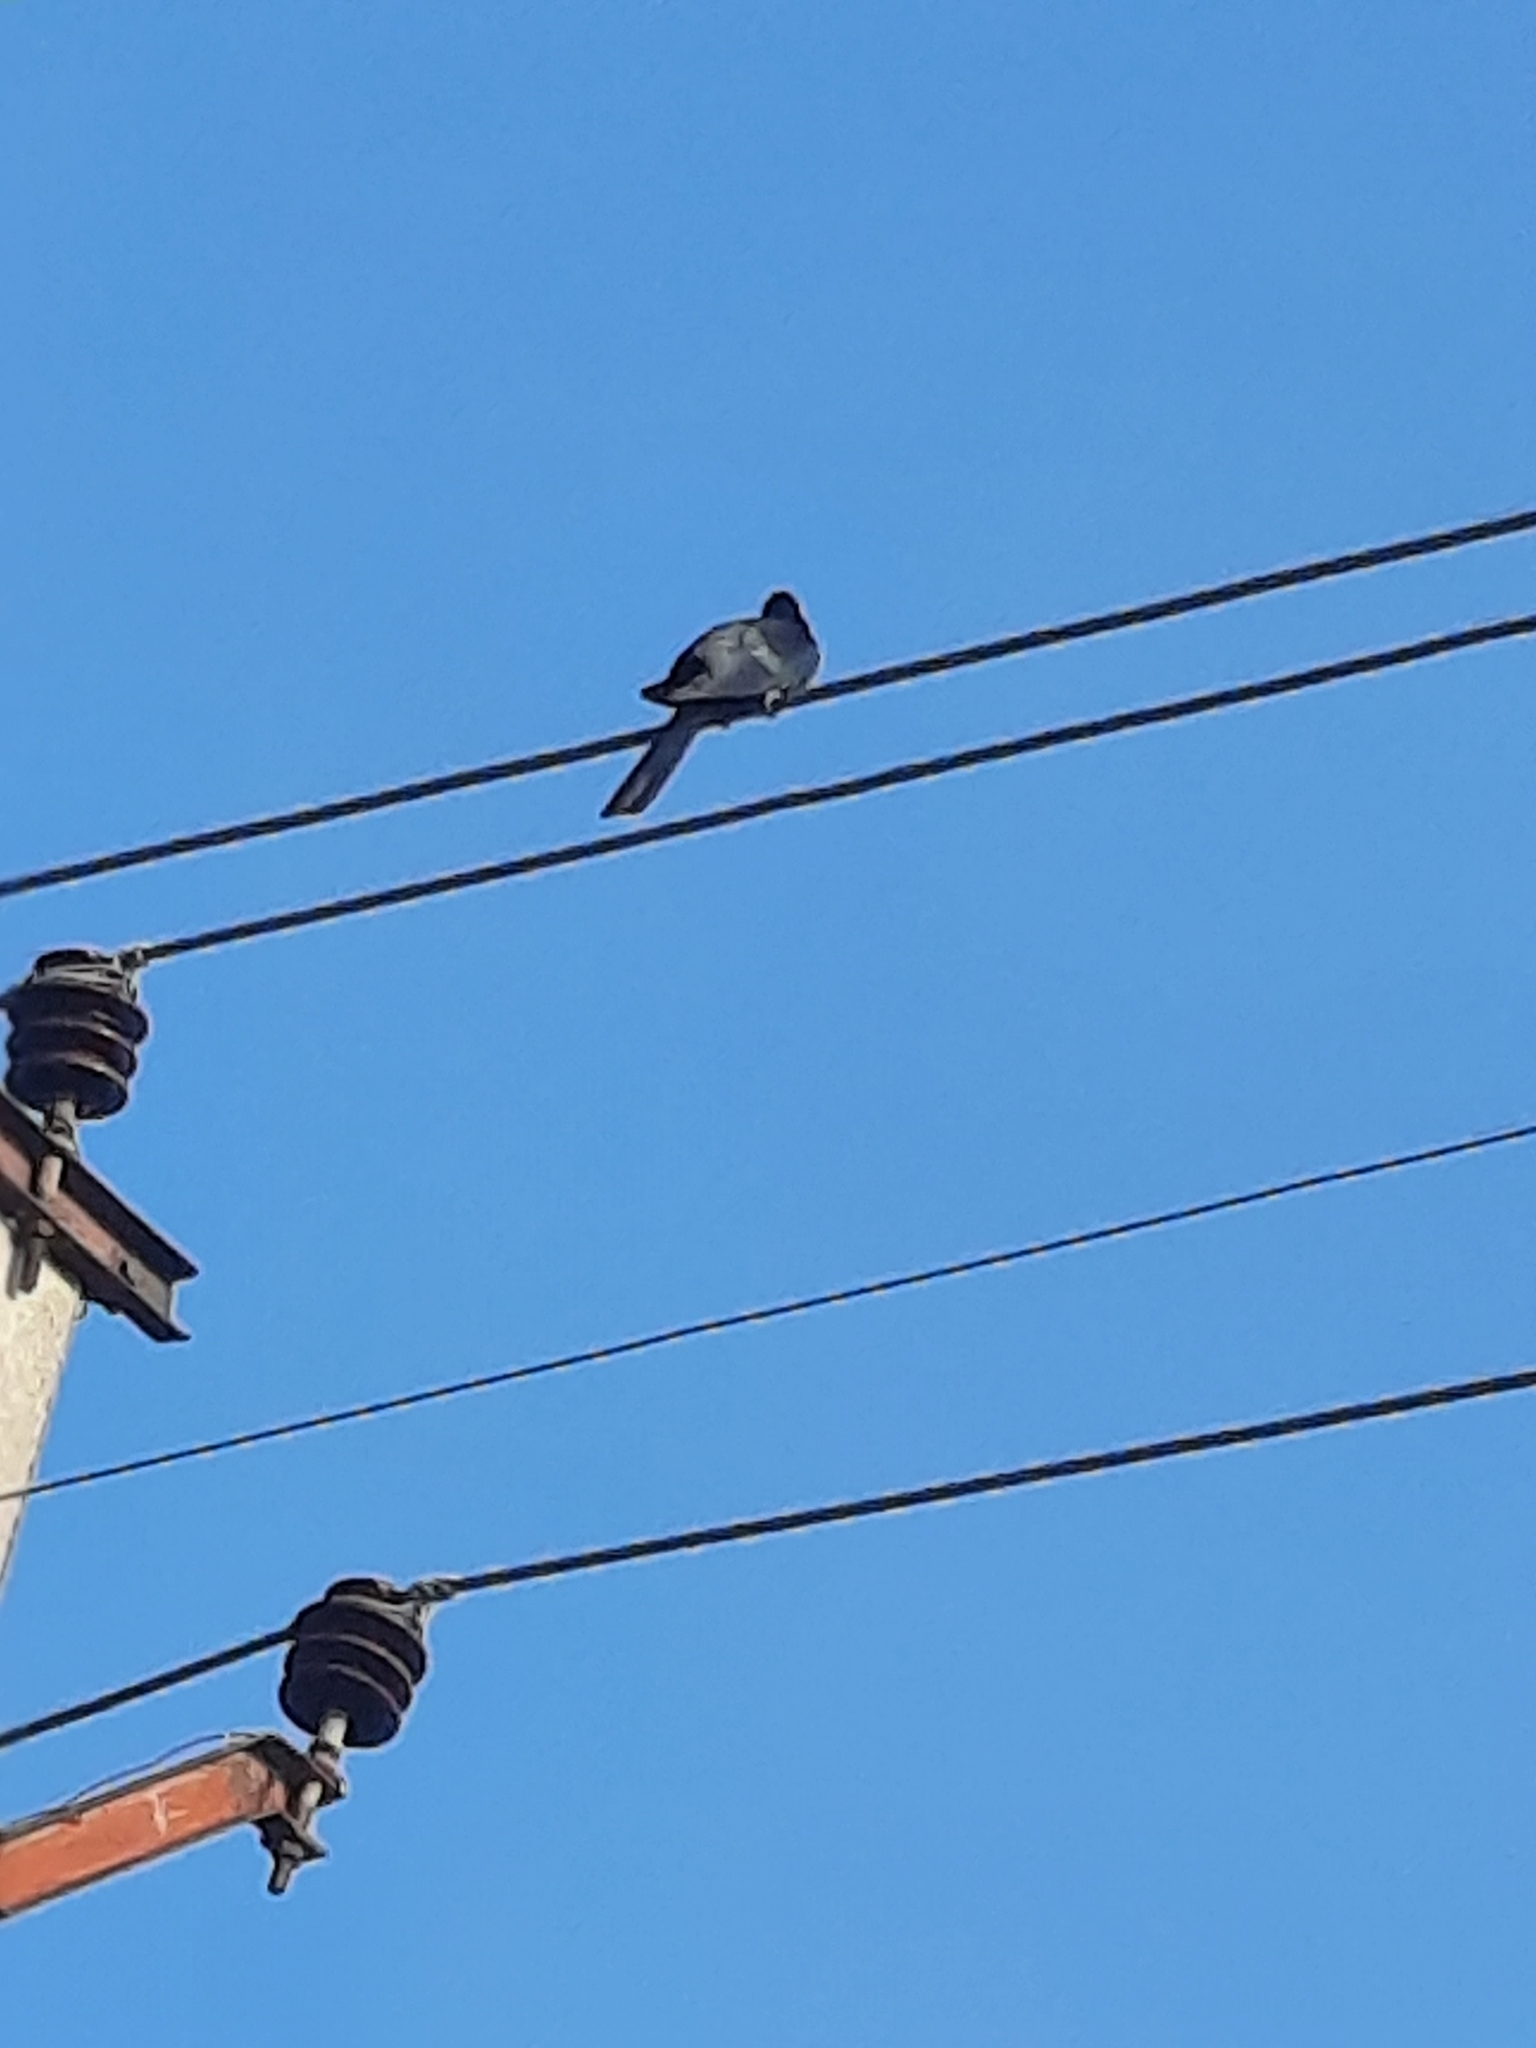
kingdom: Animalia
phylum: Chordata
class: Aves
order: Cuculiformes
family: Cuculidae
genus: Eudynamys
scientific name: Eudynamys scolopaceus
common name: Asian koel
